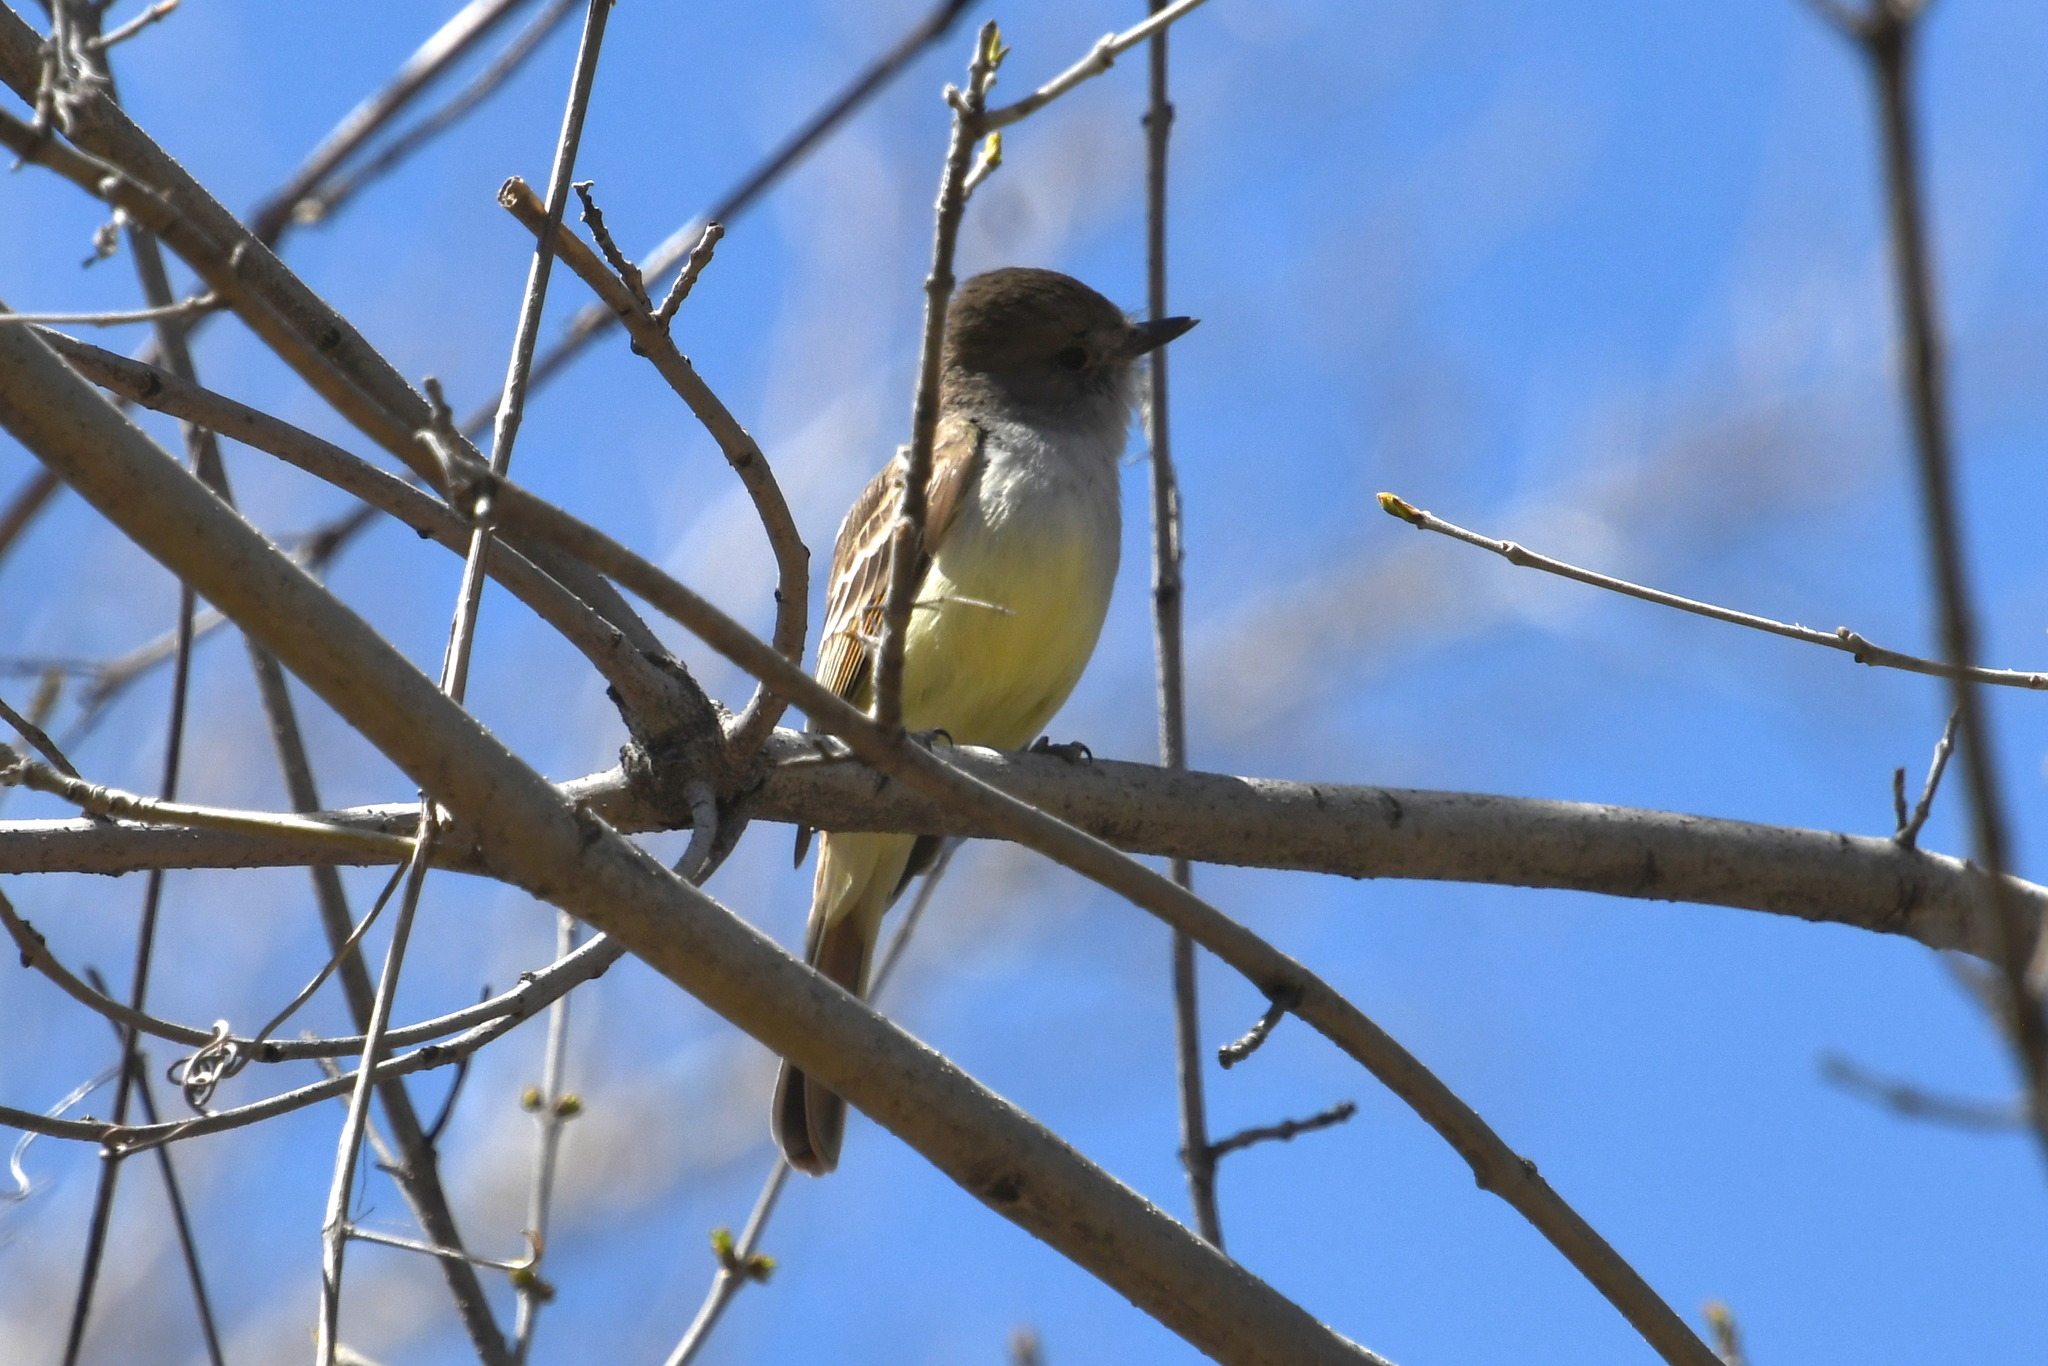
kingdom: Animalia
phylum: Chordata
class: Aves
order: Passeriformes
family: Tyrannidae
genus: Myiarchus
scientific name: Myiarchus nuttingi
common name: Nutting's flycatcher
